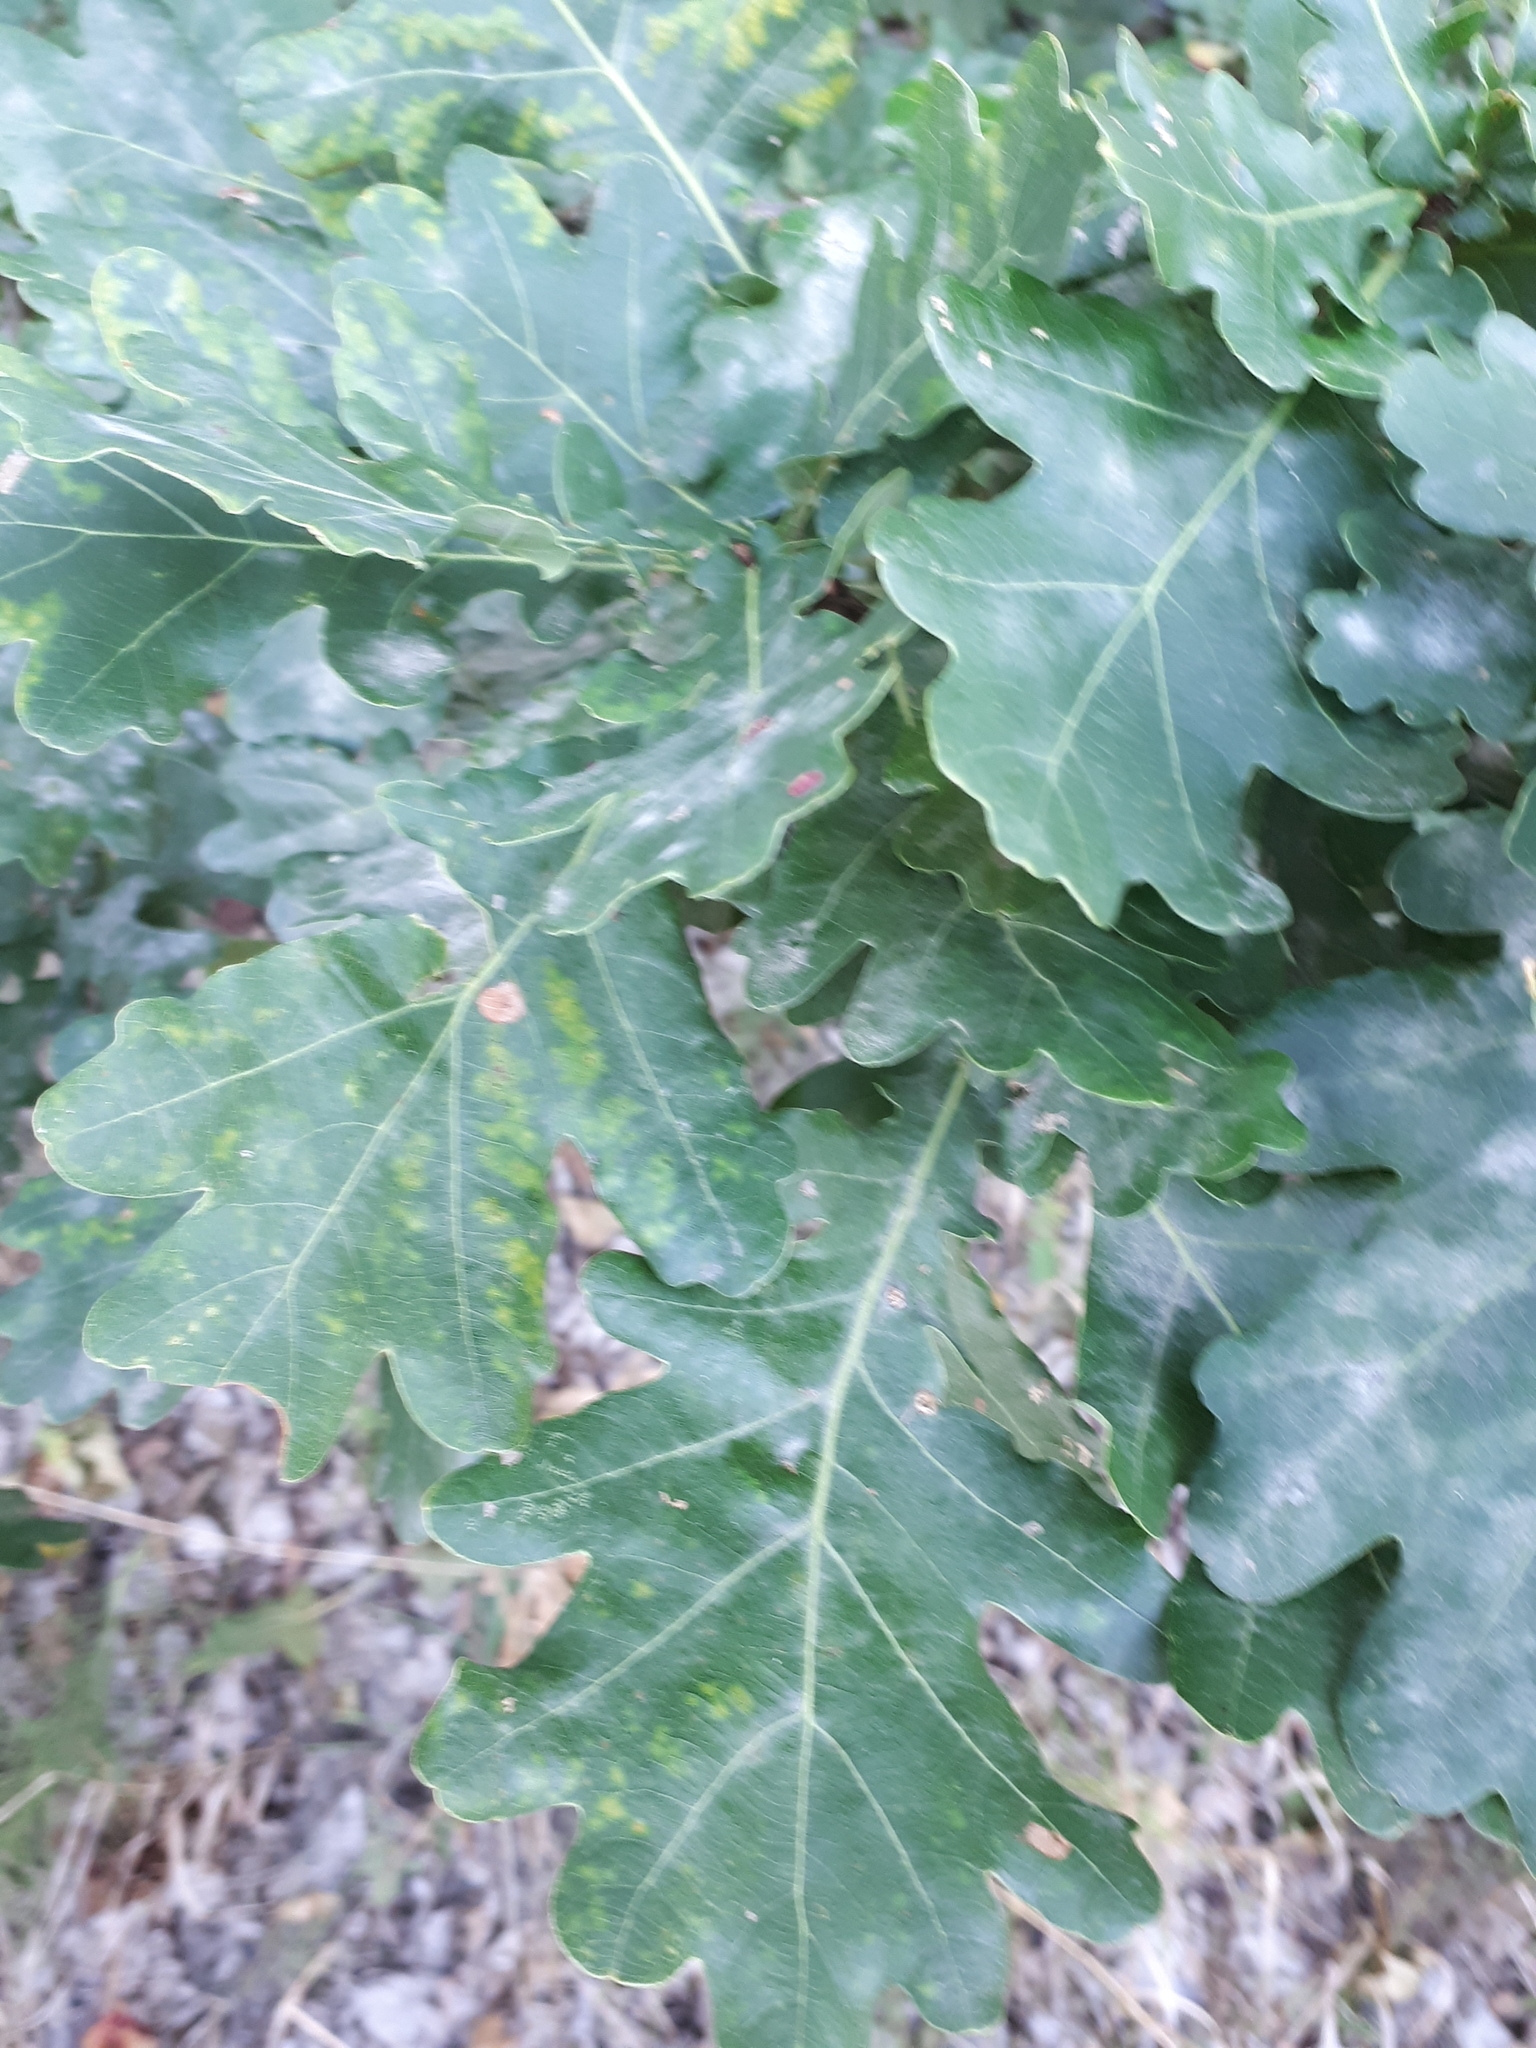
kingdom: Plantae
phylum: Tracheophyta
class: Magnoliopsida
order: Fagales
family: Fagaceae
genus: Quercus
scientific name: Quercus robur
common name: Pedunculate oak
